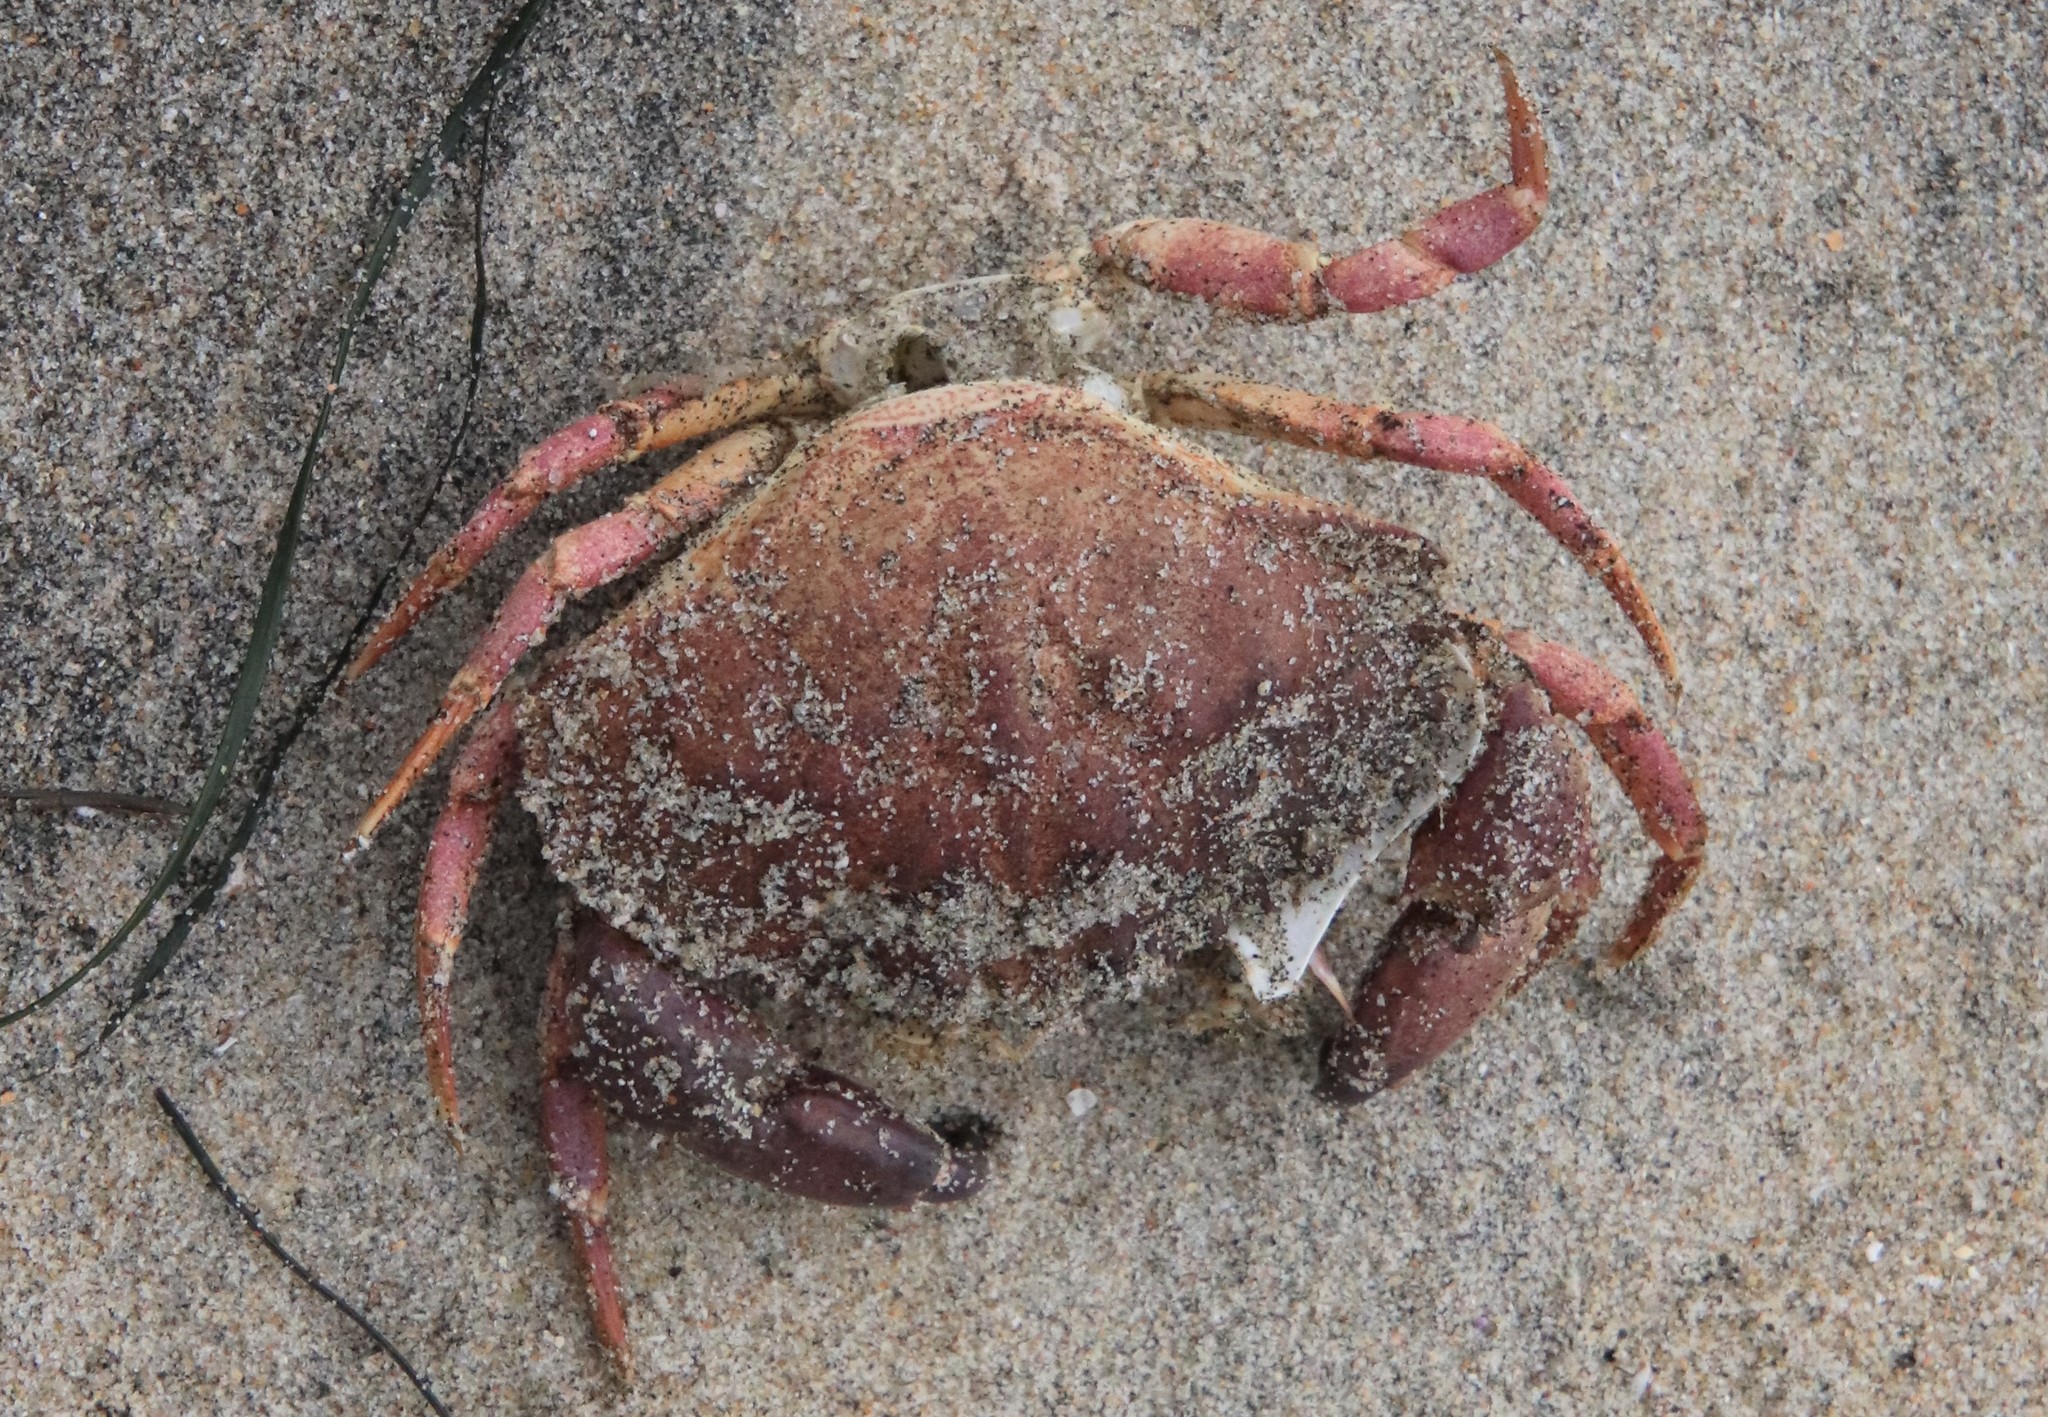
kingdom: Animalia
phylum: Arthropoda
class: Malacostraca
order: Decapoda
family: Cancridae
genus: Metacarcinus
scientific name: Metacarcinus anthonyi
